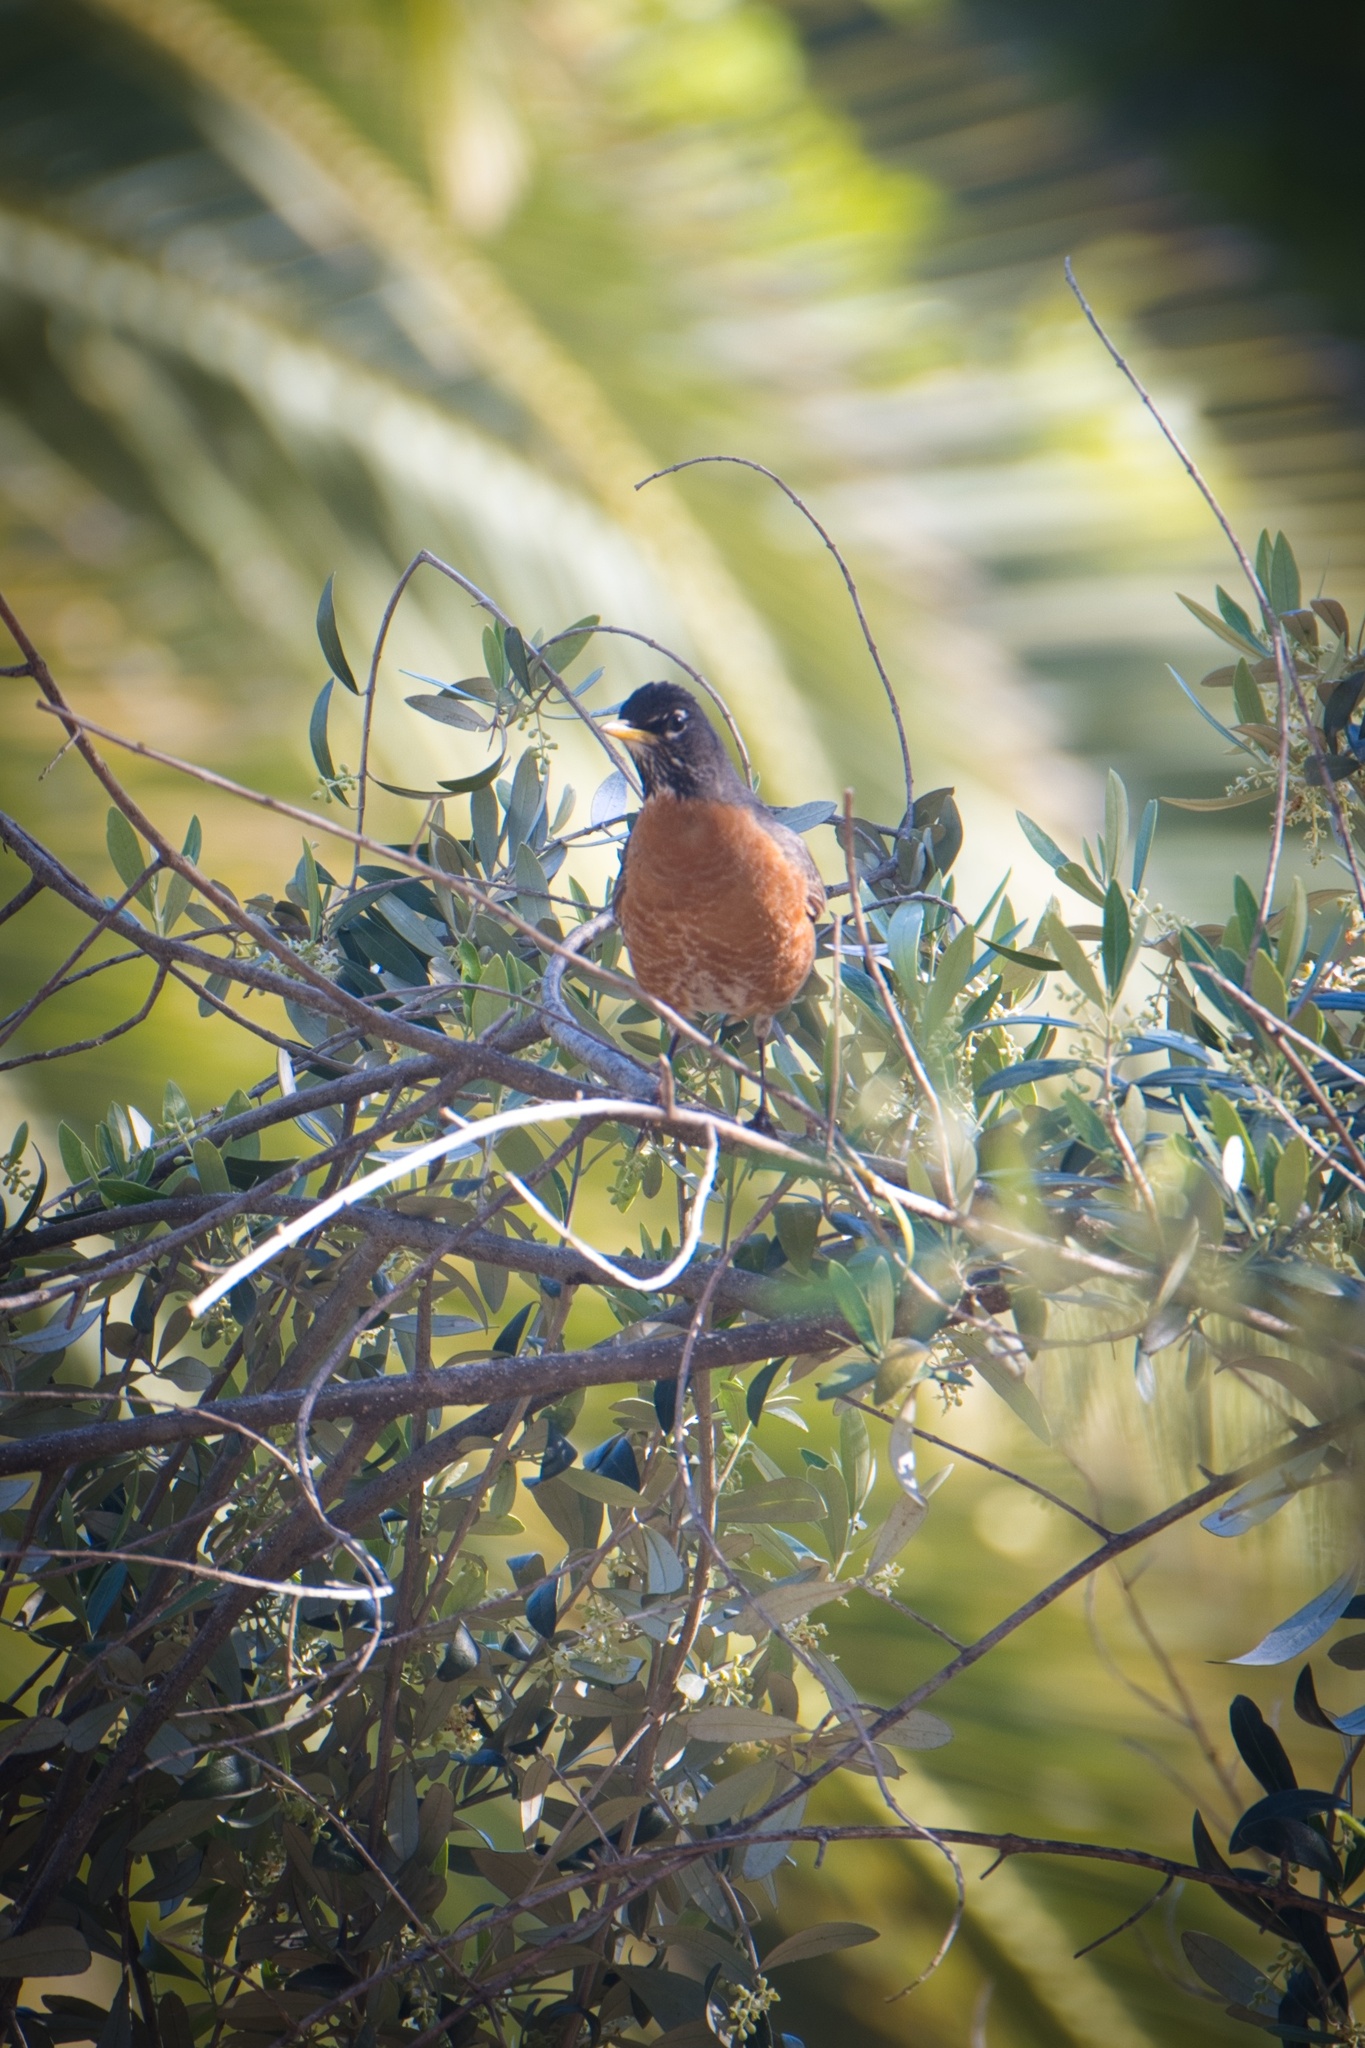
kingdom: Animalia
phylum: Chordata
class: Aves
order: Passeriformes
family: Turdidae
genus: Turdus
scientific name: Turdus migratorius
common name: American robin
